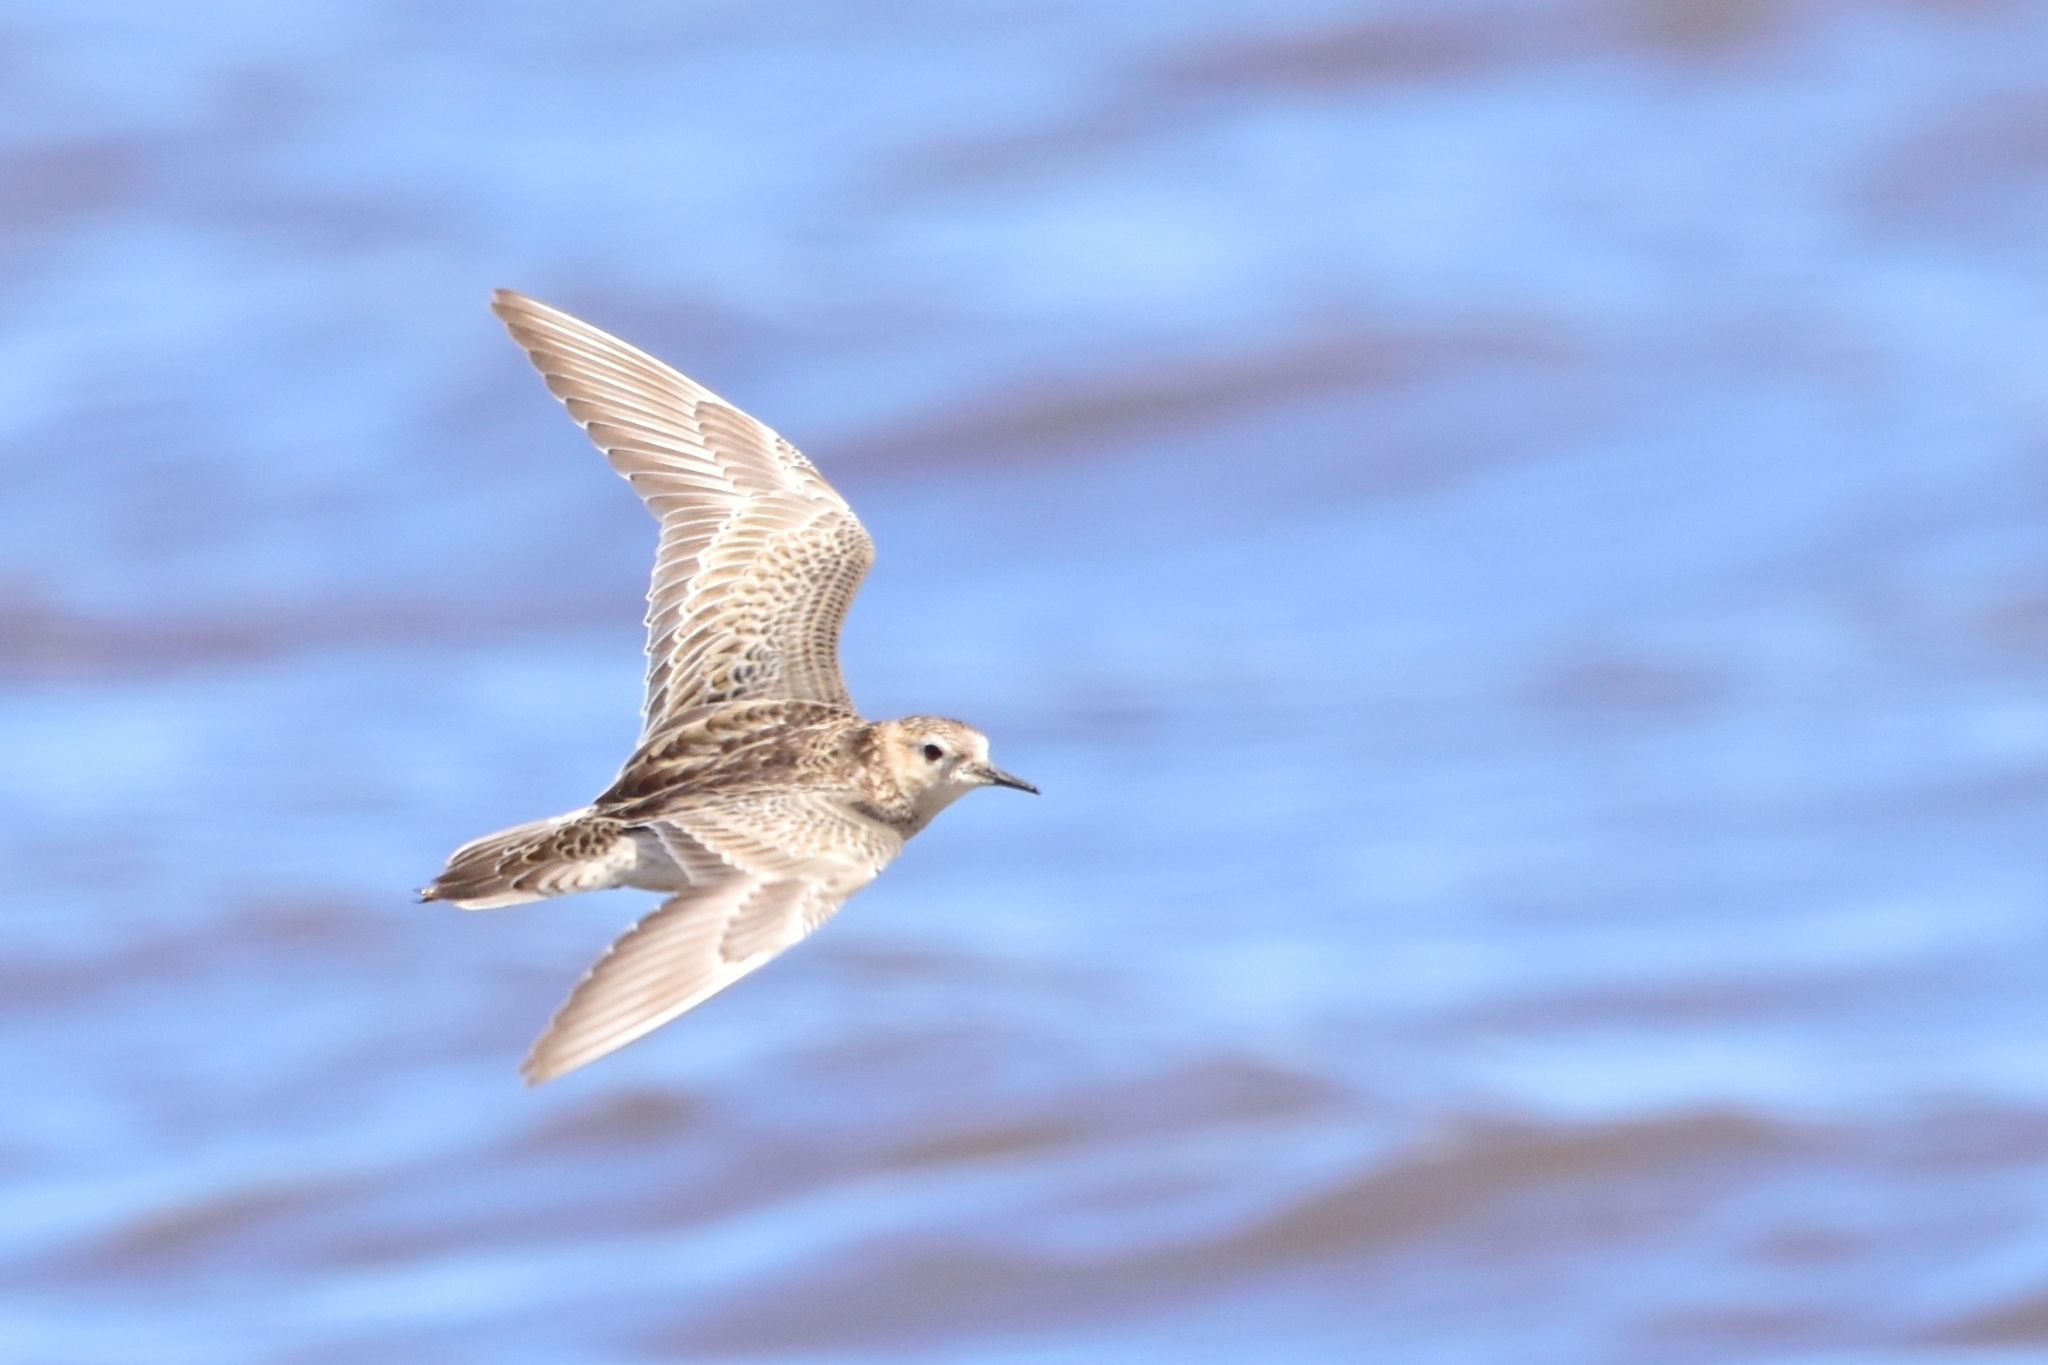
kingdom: Animalia
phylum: Chordata
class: Aves
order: Charadriiformes
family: Scolopacidae
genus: Calidris
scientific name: Calidris subruficollis
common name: Buff-breasted sandpiper
